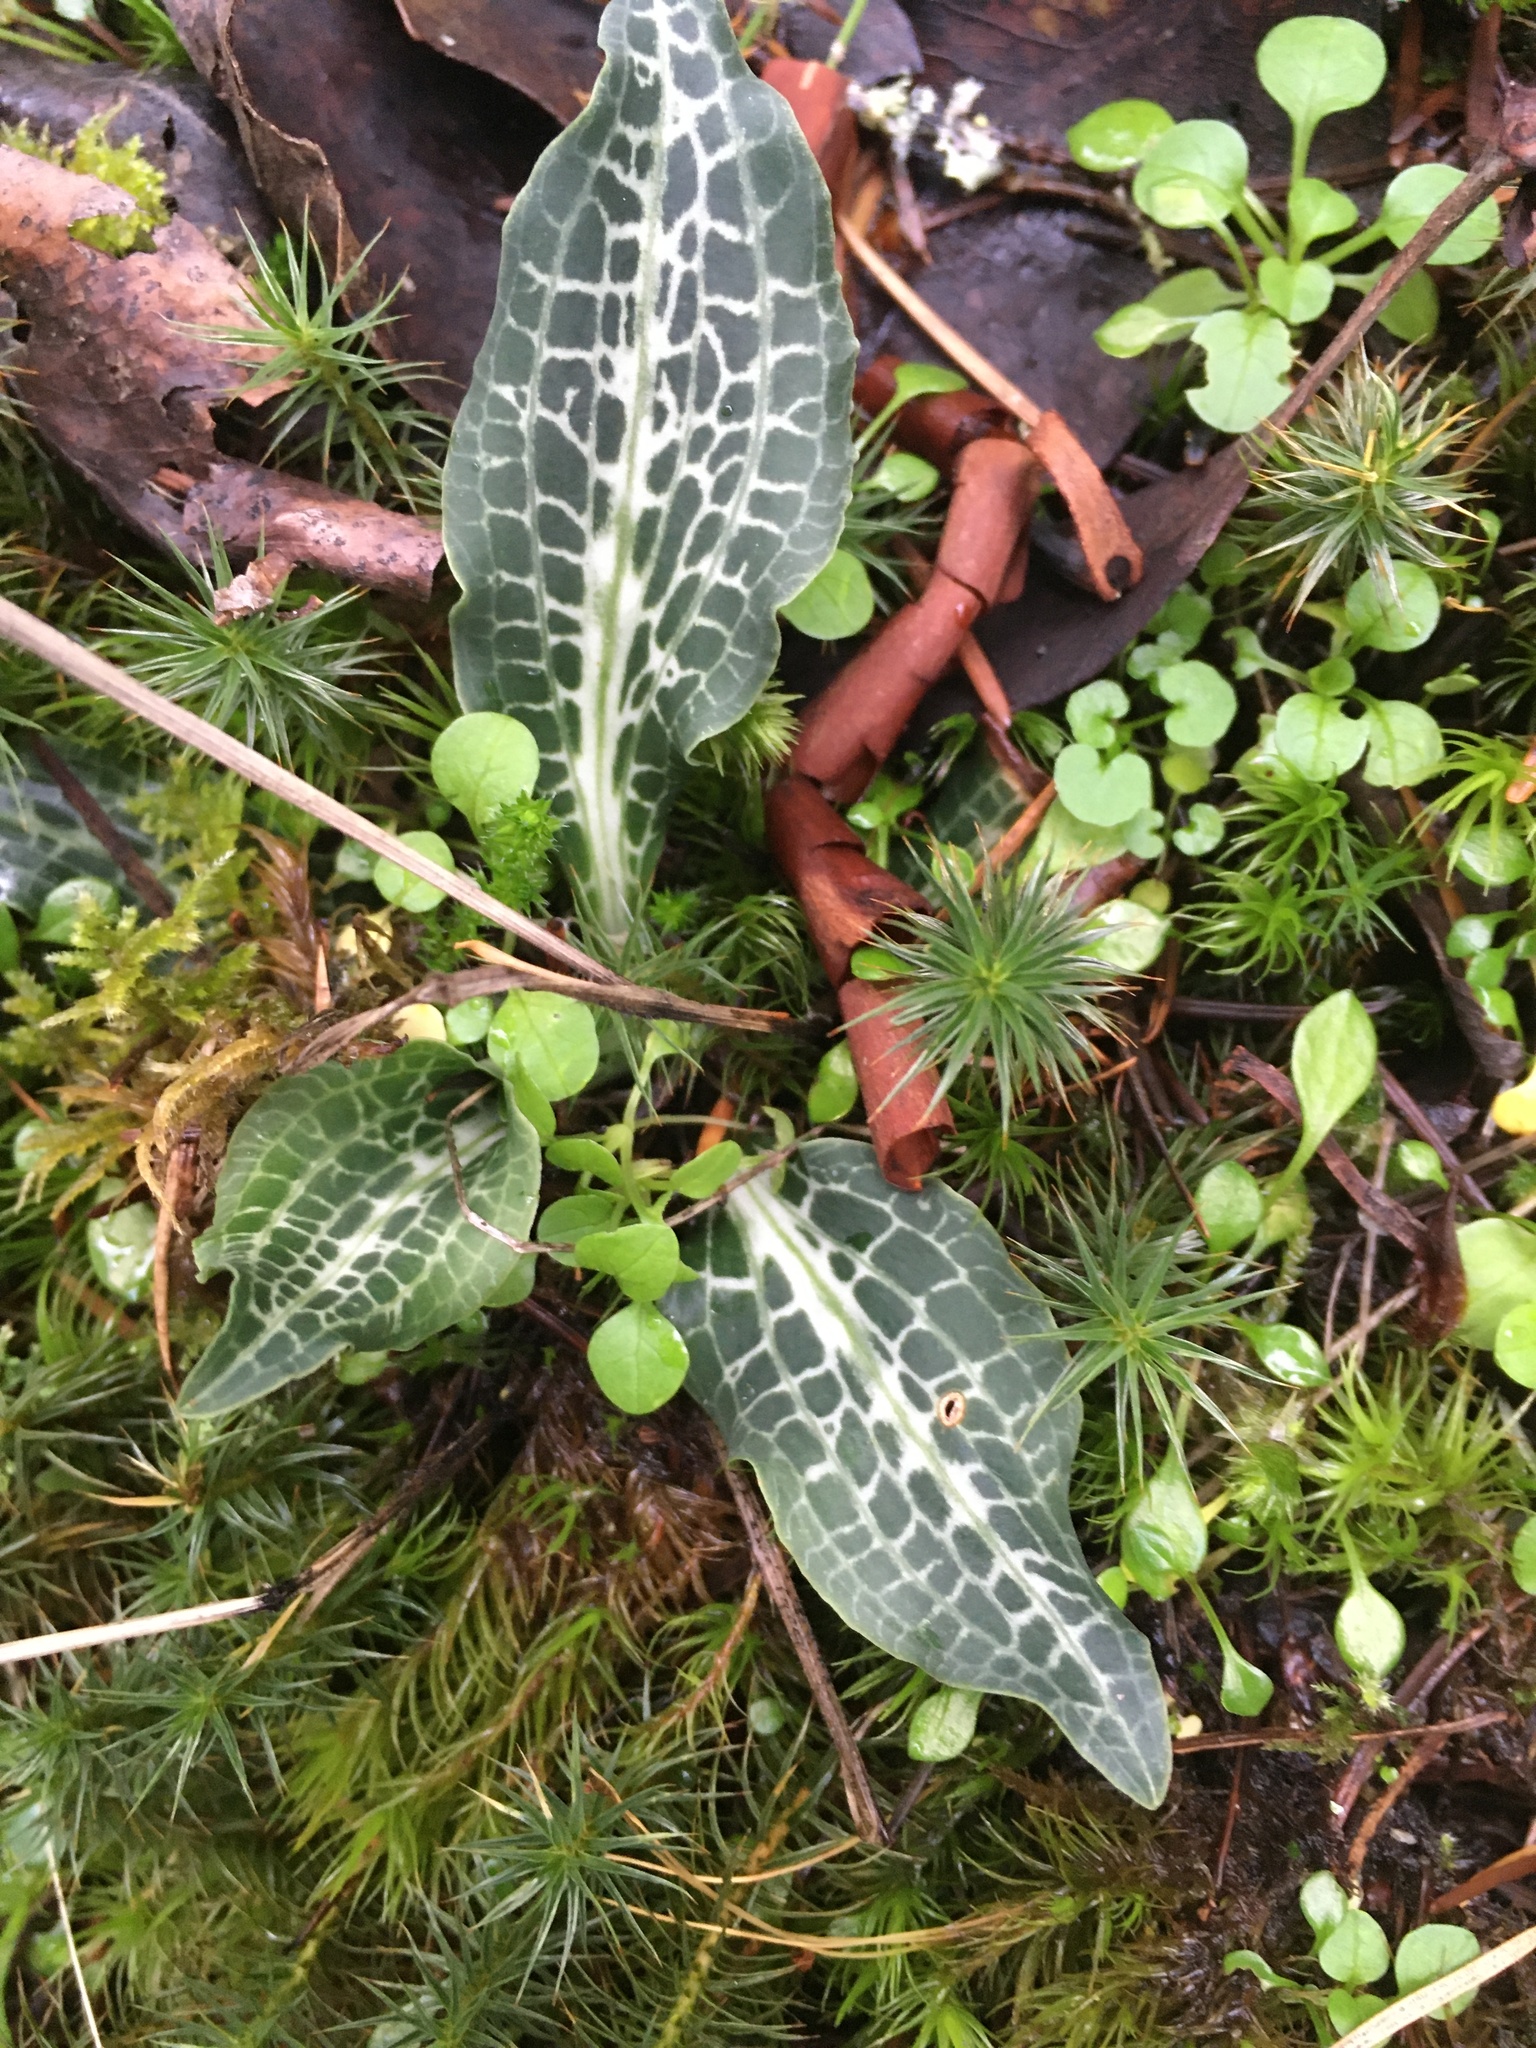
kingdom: Plantae
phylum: Tracheophyta
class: Liliopsida
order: Asparagales
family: Orchidaceae
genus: Goodyera
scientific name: Goodyera oblongifolia
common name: Giant rattlesnake-plantain
